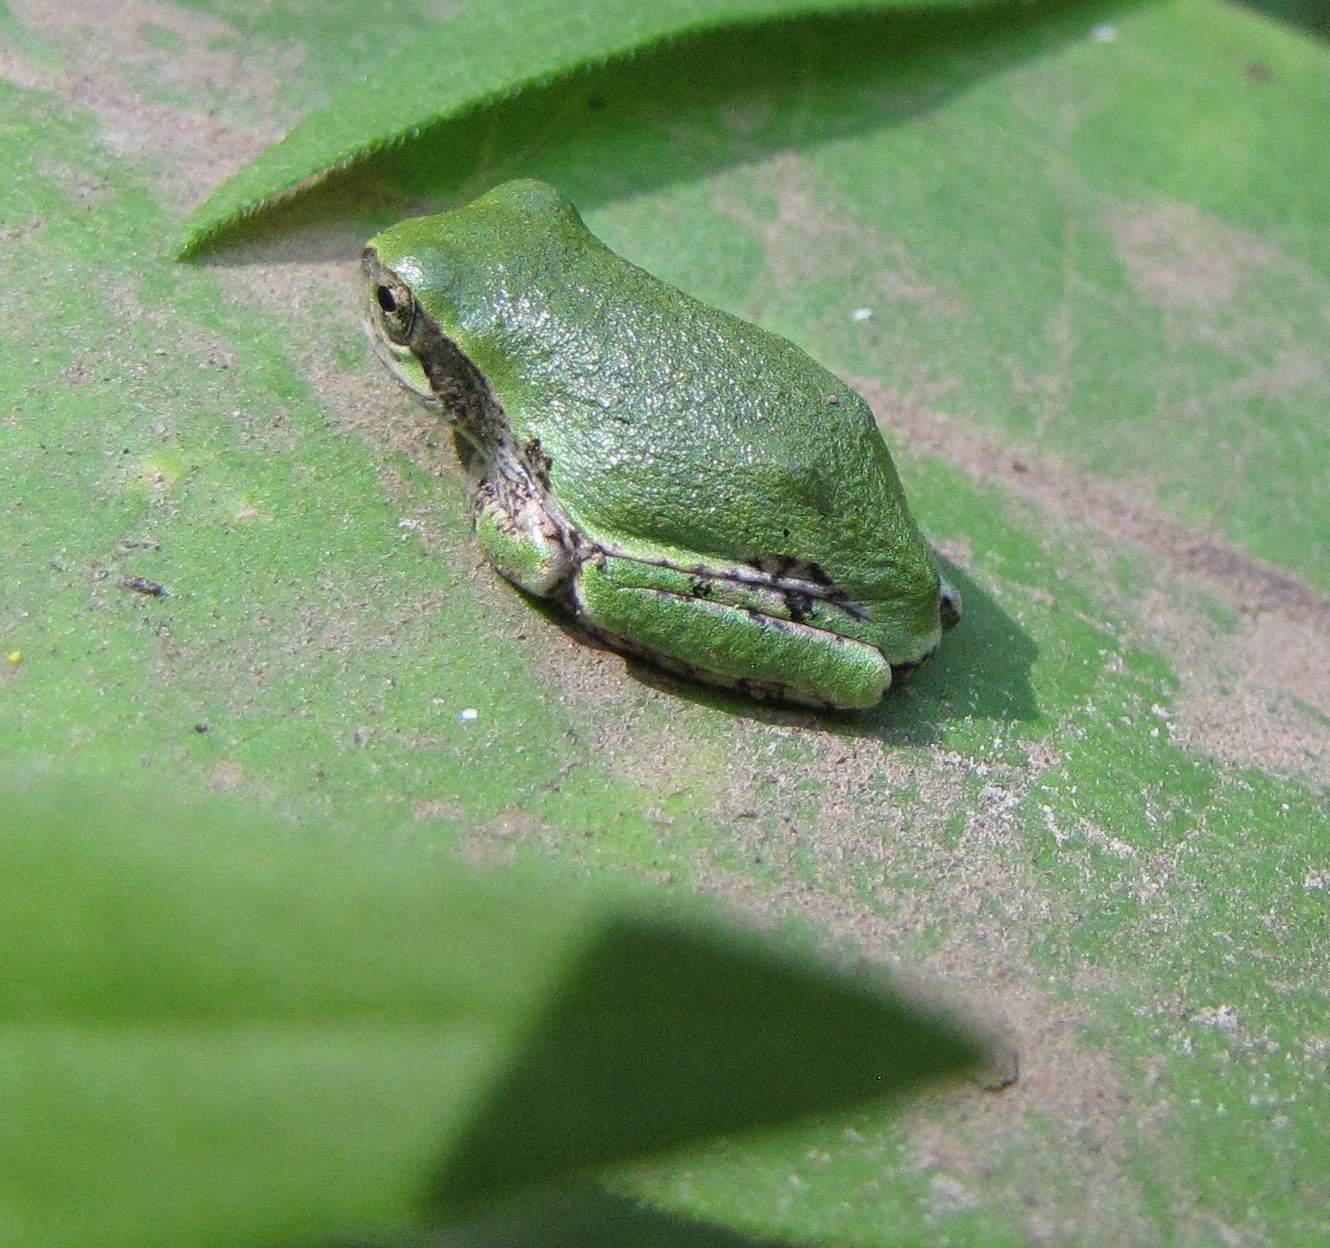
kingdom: Animalia
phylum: Chordata
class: Amphibia
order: Anura
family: Hylidae
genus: Dryophytes
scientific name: Dryophytes versicolor
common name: Gray treefrog
